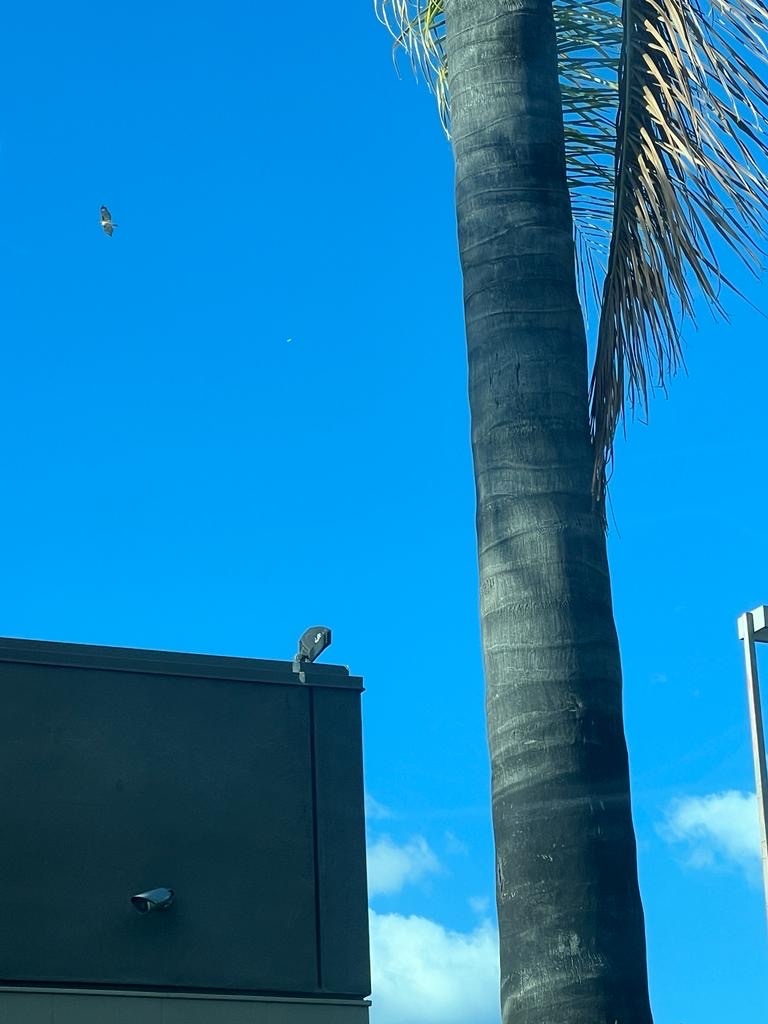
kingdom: Animalia
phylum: Chordata
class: Aves
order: Accipitriformes
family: Accipitridae
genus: Buteo
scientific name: Buteo jamaicensis
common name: Red-tailed hawk
